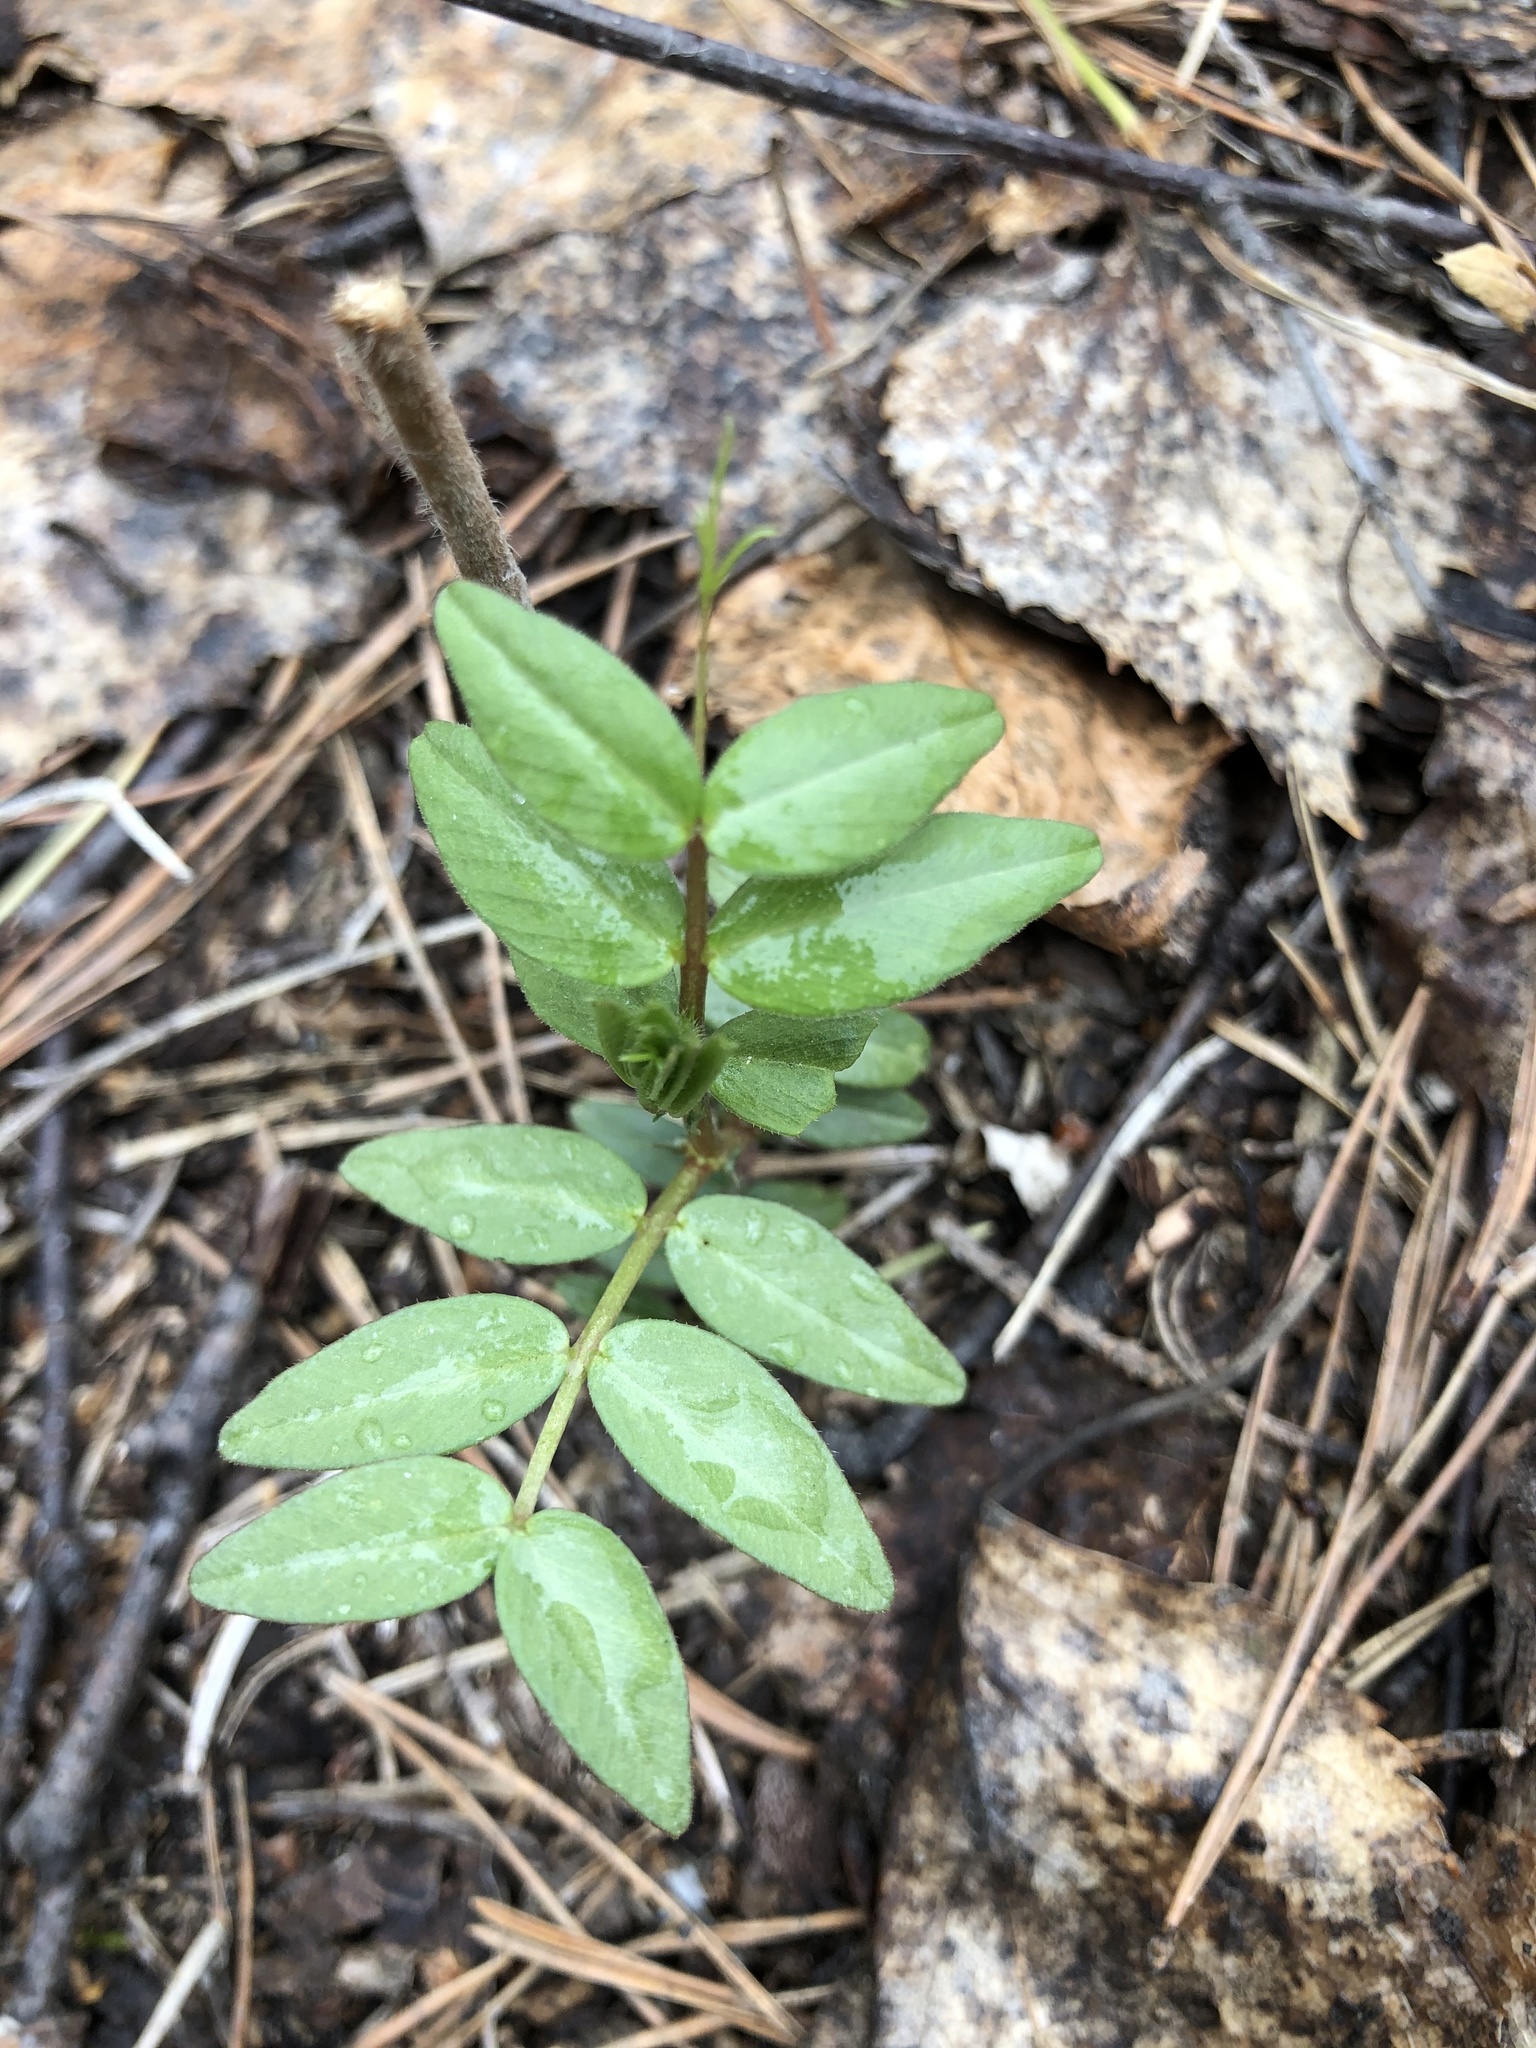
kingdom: Plantae
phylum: Tracheophyta
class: Magnoliopsida
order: Fabales
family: Fabaceae
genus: Vicia
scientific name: Vicia sepium
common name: Bush vetch
